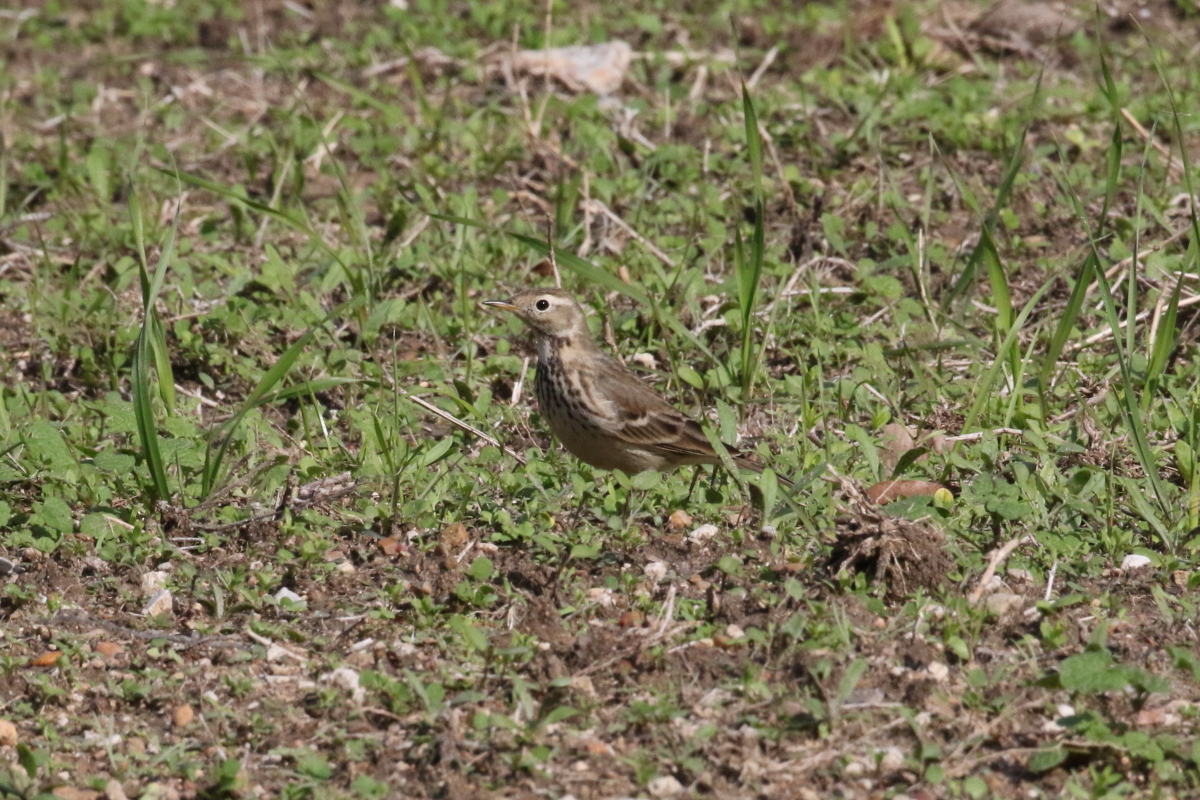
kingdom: Animalia
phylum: Chordata
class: Aves
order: Passeriformes
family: Motacillidae
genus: Anthus
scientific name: Anthus rubescens
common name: Buff-bellied pipit
